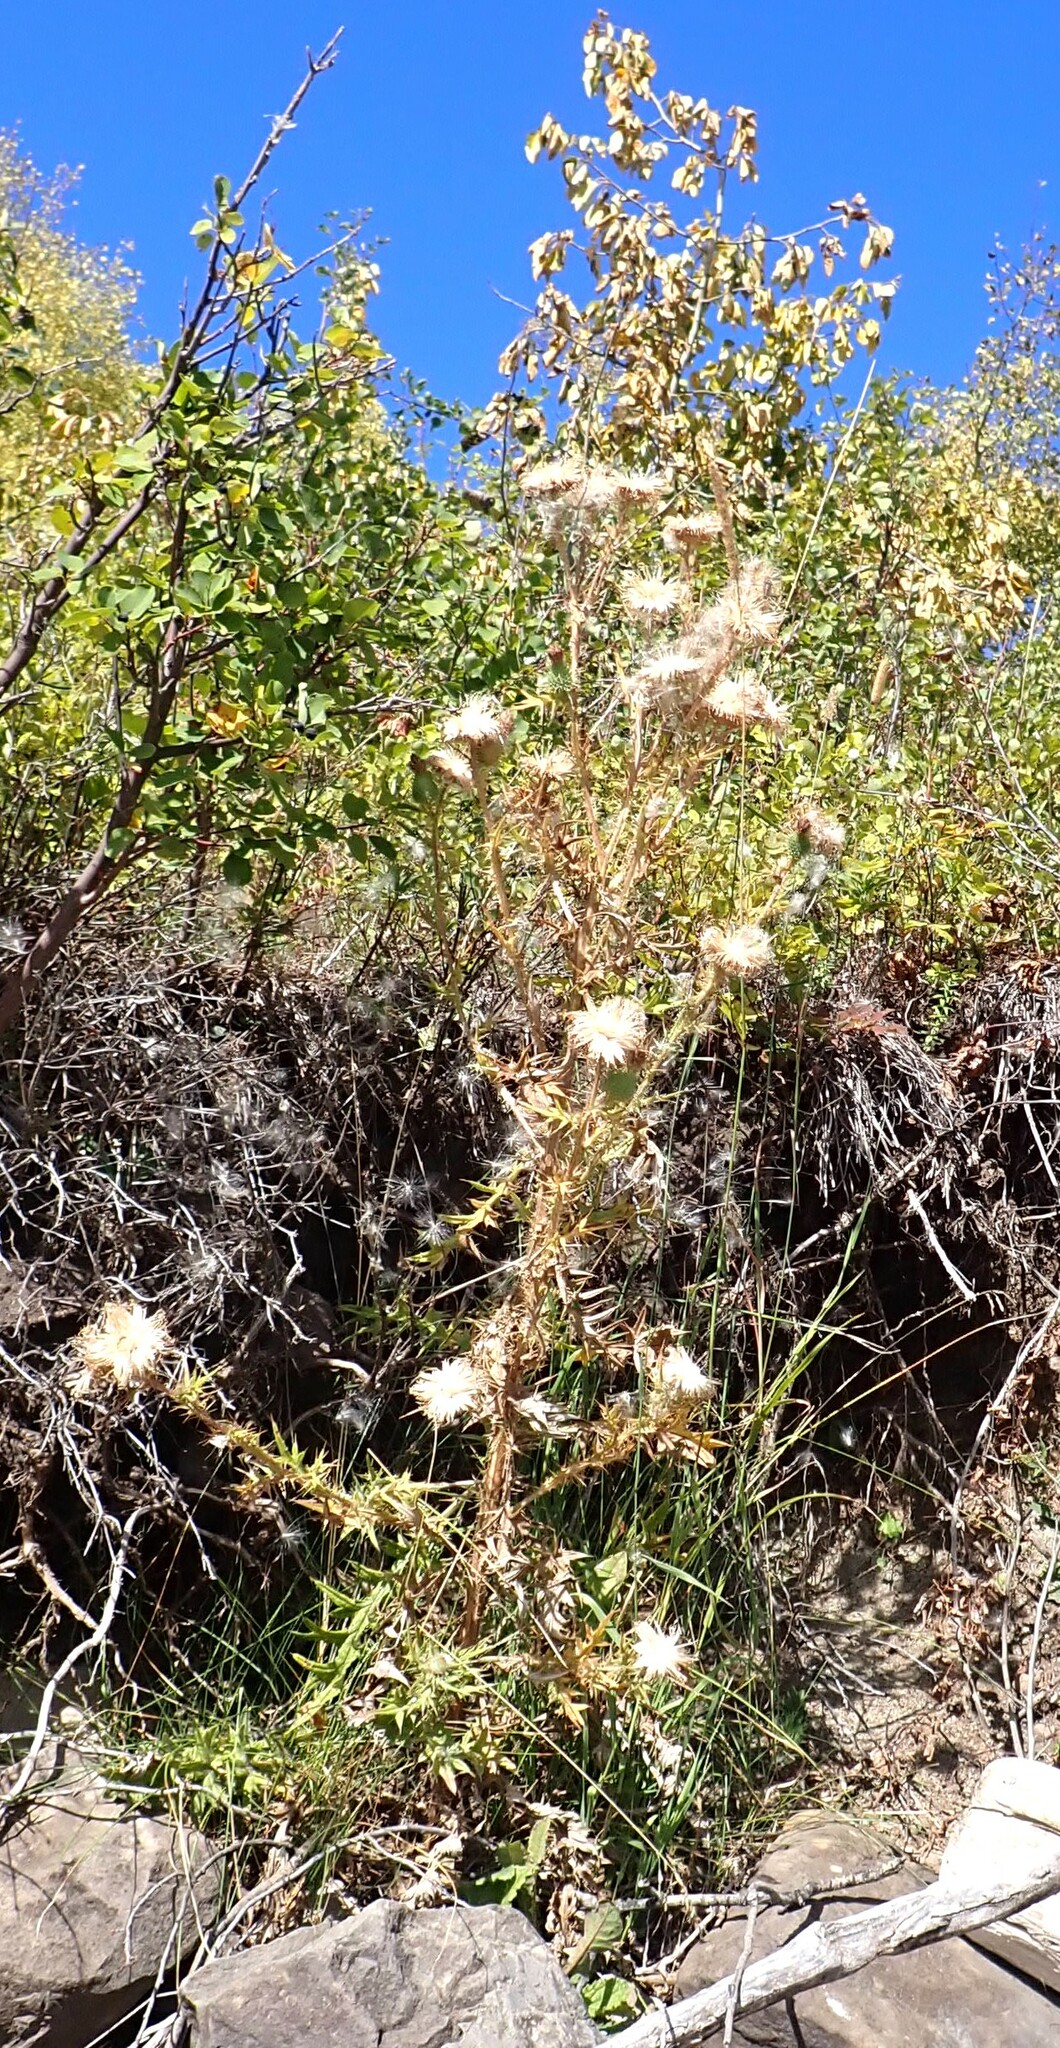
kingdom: Plantae
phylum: Tracheophyta
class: Magnoliopsida
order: Asterales
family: Asteraceae
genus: Cirsium
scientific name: Cirsium vulgare
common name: Bull thistle
